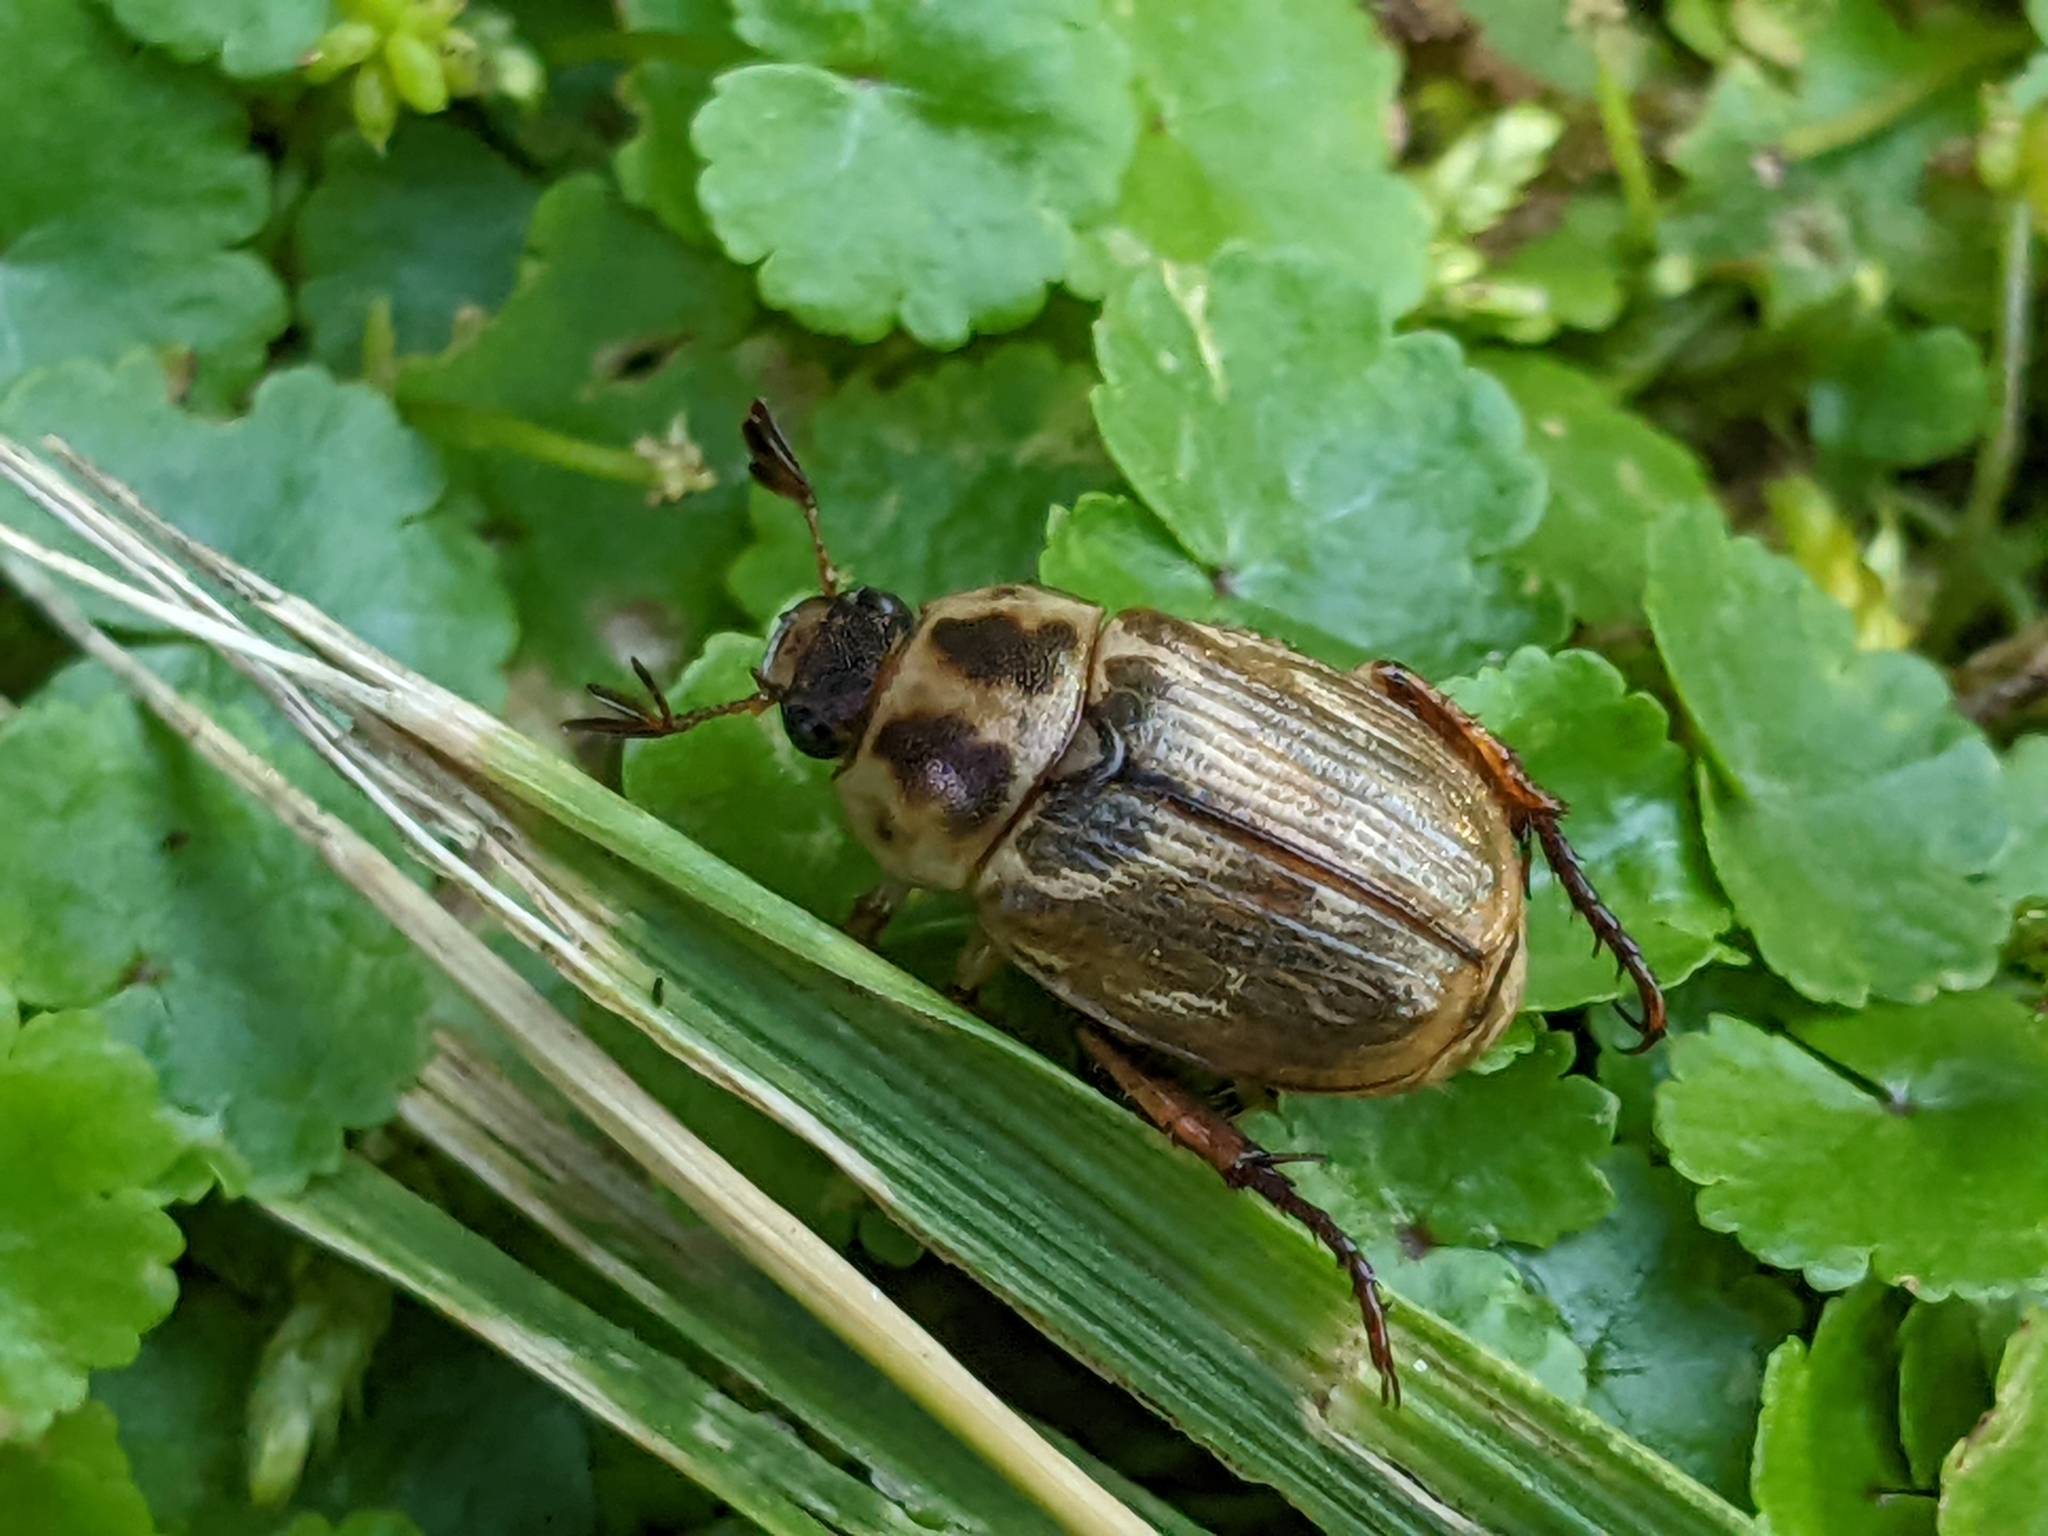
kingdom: Animalia
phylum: Arthropoda
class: Insecta
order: Coleoptera
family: Scarabaeidae
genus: Exomala
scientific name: Exomala orientalis
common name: Oriental beetle
